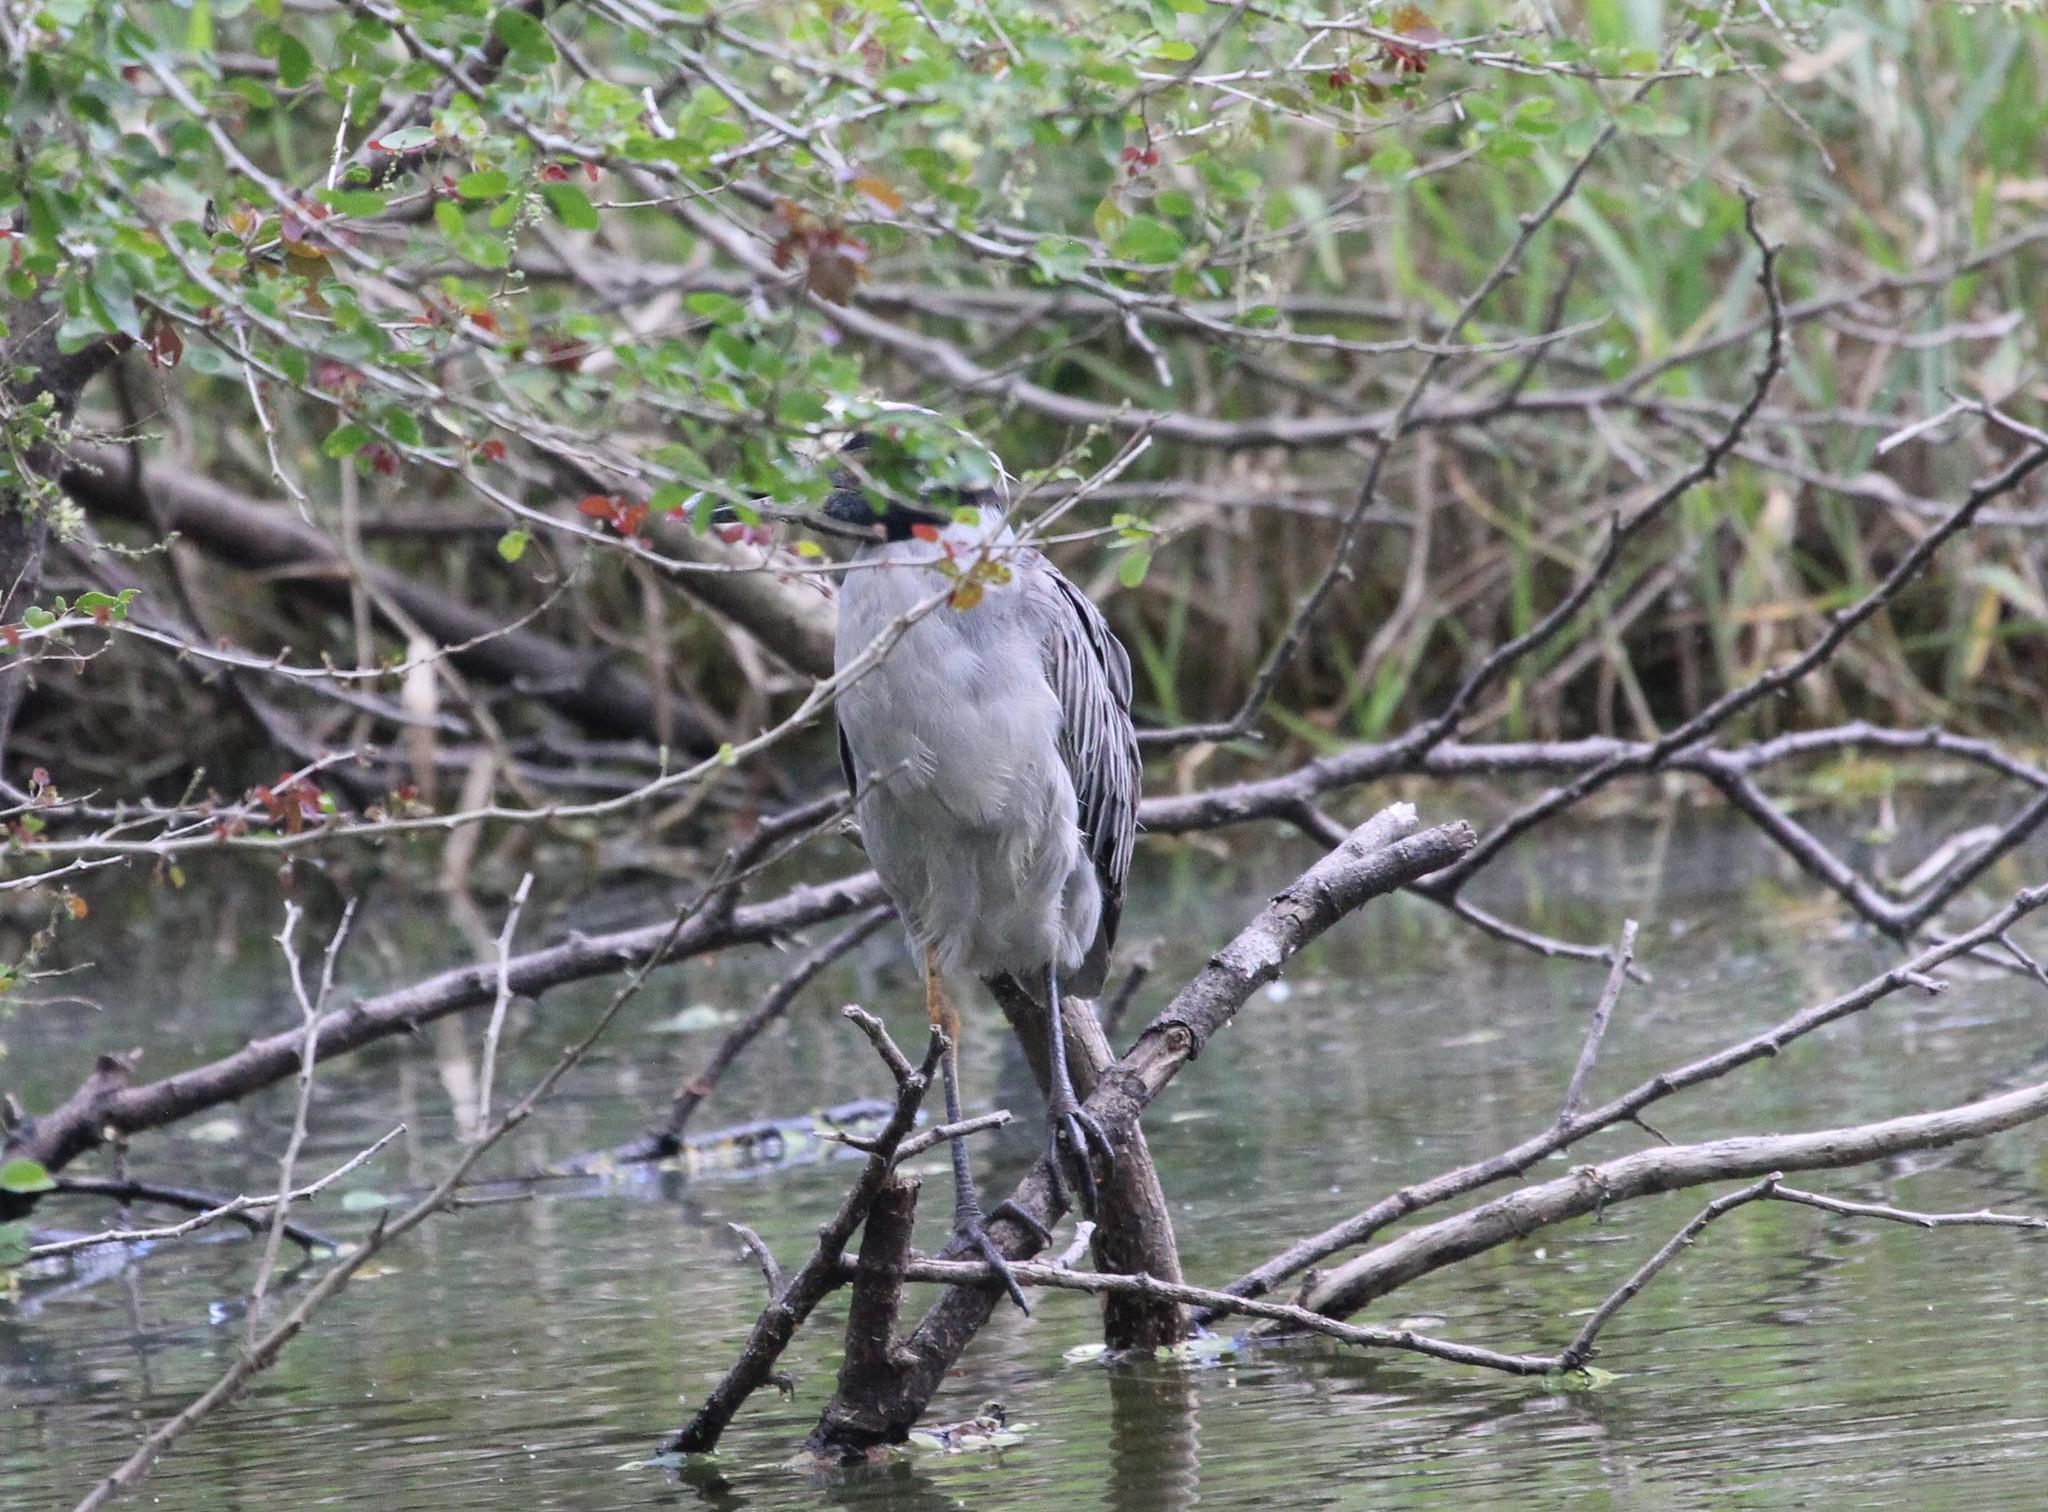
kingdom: Animalia
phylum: Chordata
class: Aves
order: Pelecaniformes
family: Ardeidae
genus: Nyctanassa
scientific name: Nyctanassa violacea
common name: Yellow-crowned night heron
